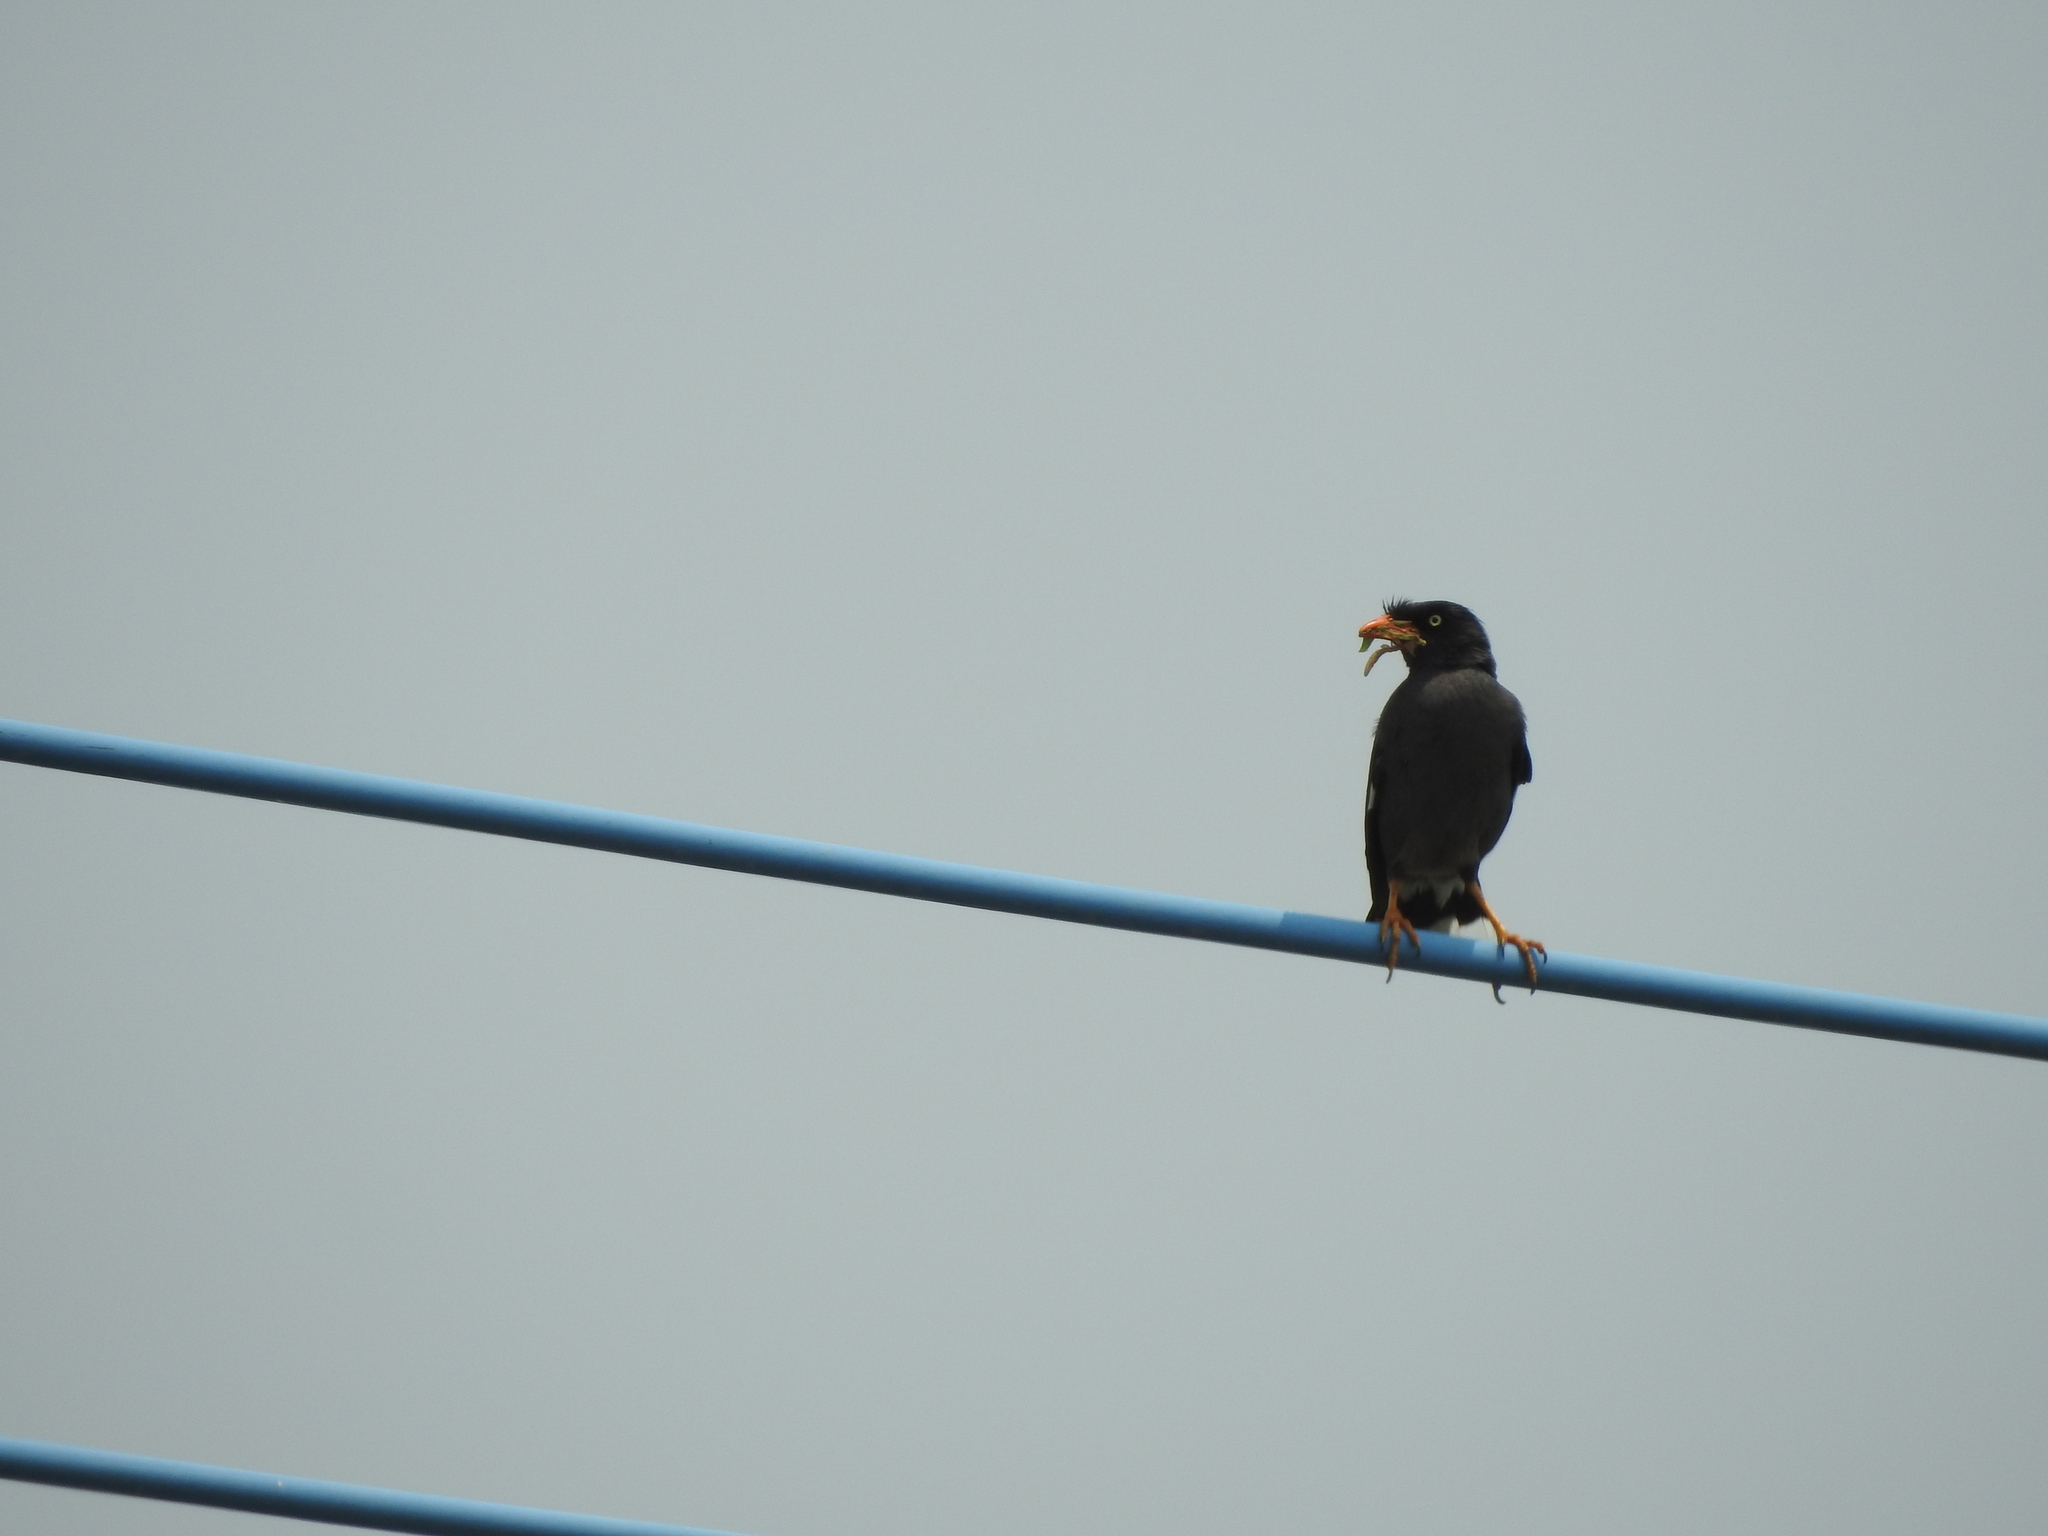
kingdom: Animalia
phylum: Chordata
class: Aves
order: Passeriformes
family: Sturnidae
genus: Acridotheres
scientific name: Acridotheres javanicus
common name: Javan myna
